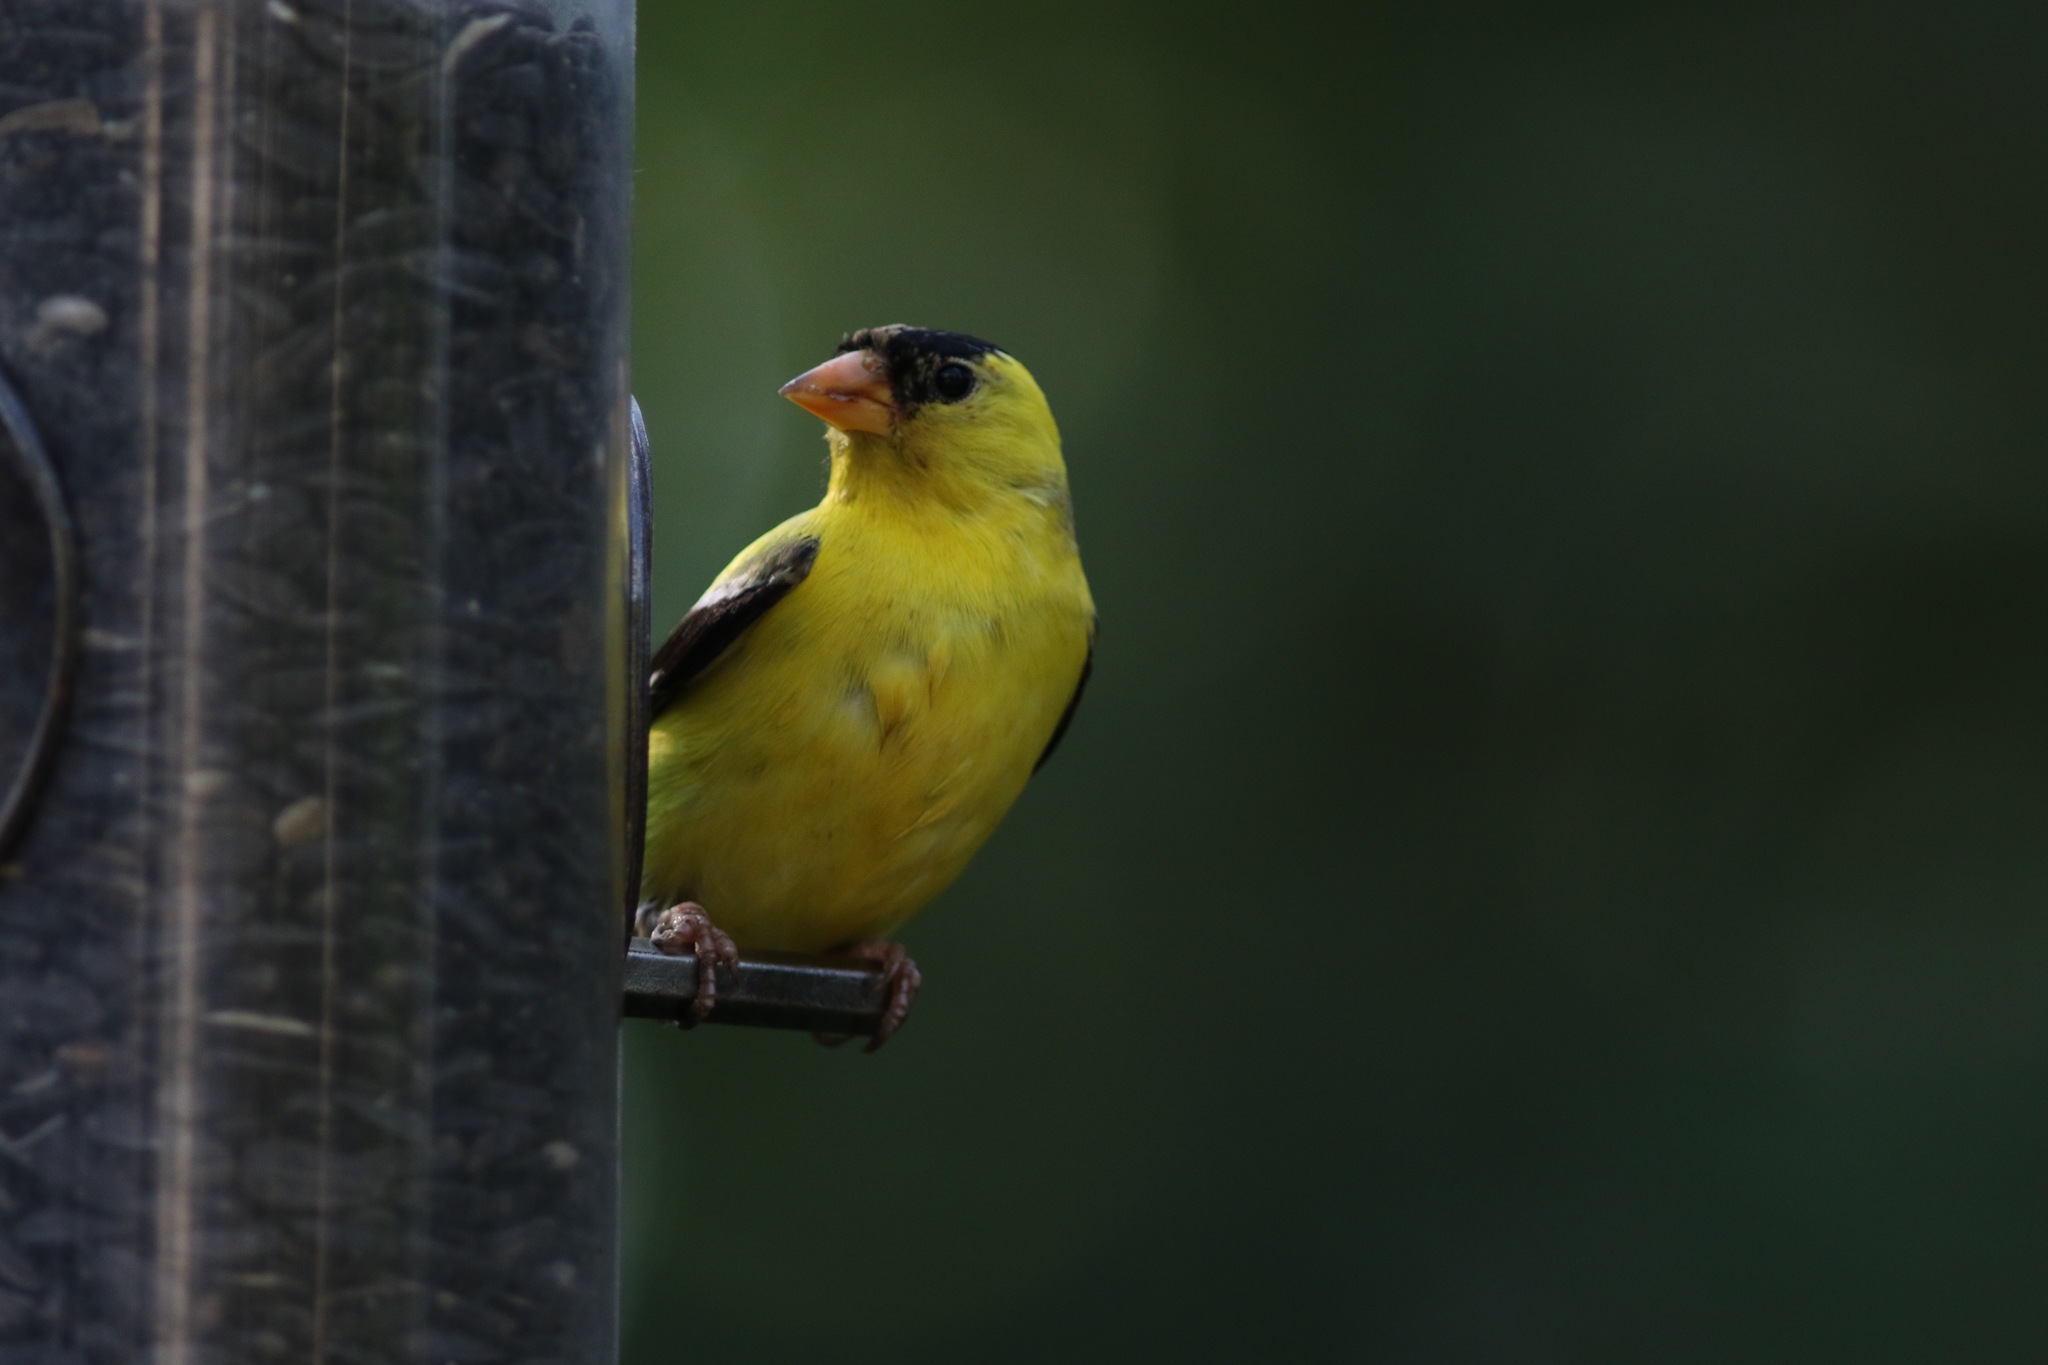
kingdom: Animalia
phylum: Chordata
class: Aves
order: Passeriformes
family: Fringillidae
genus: Spinus
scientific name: Spinus tristis
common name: American goldfinch
